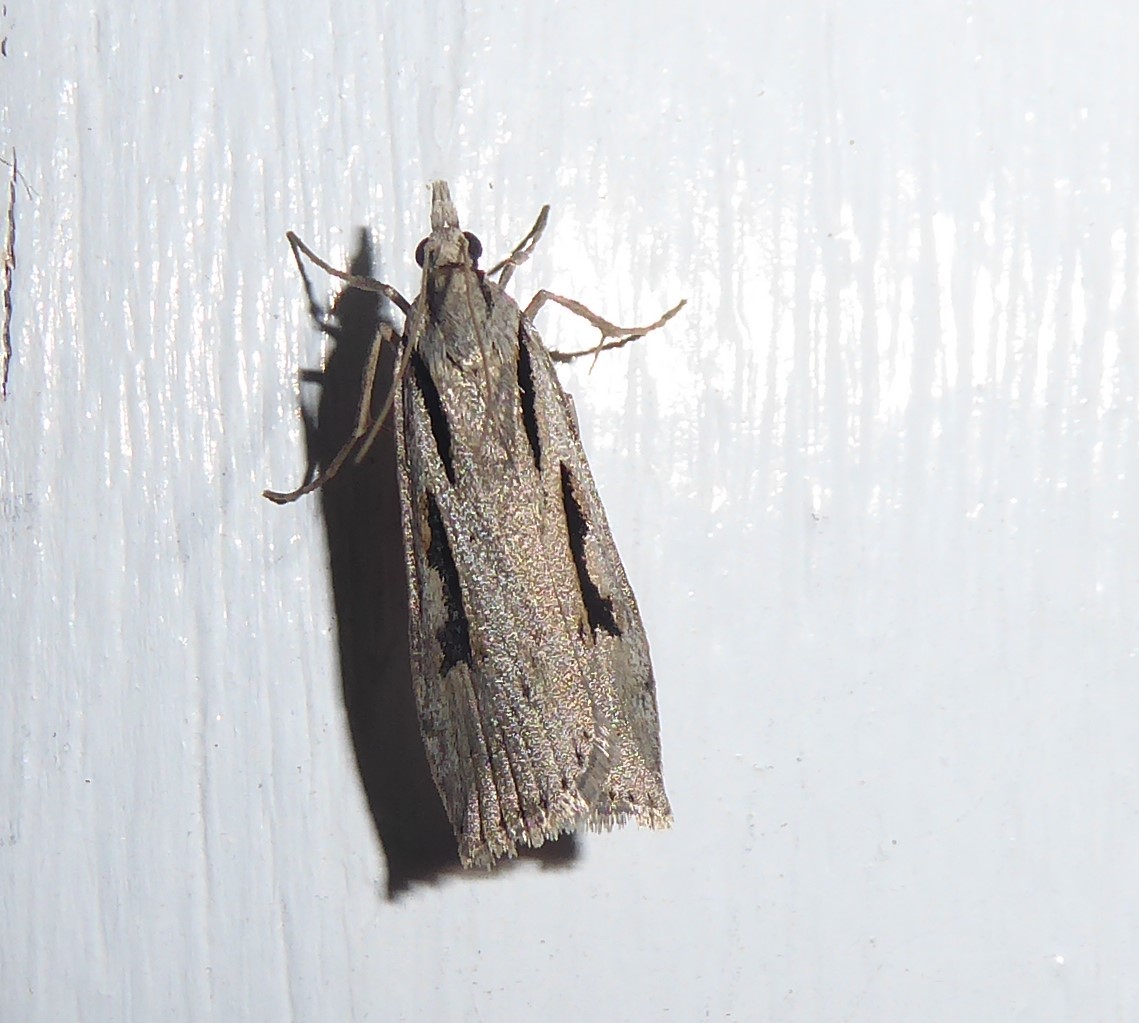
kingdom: Animalia
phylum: Arthropoda
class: Insecta
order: Lepidoptera
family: Crambidae
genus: Scoparia
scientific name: Scoparia rotuellus
